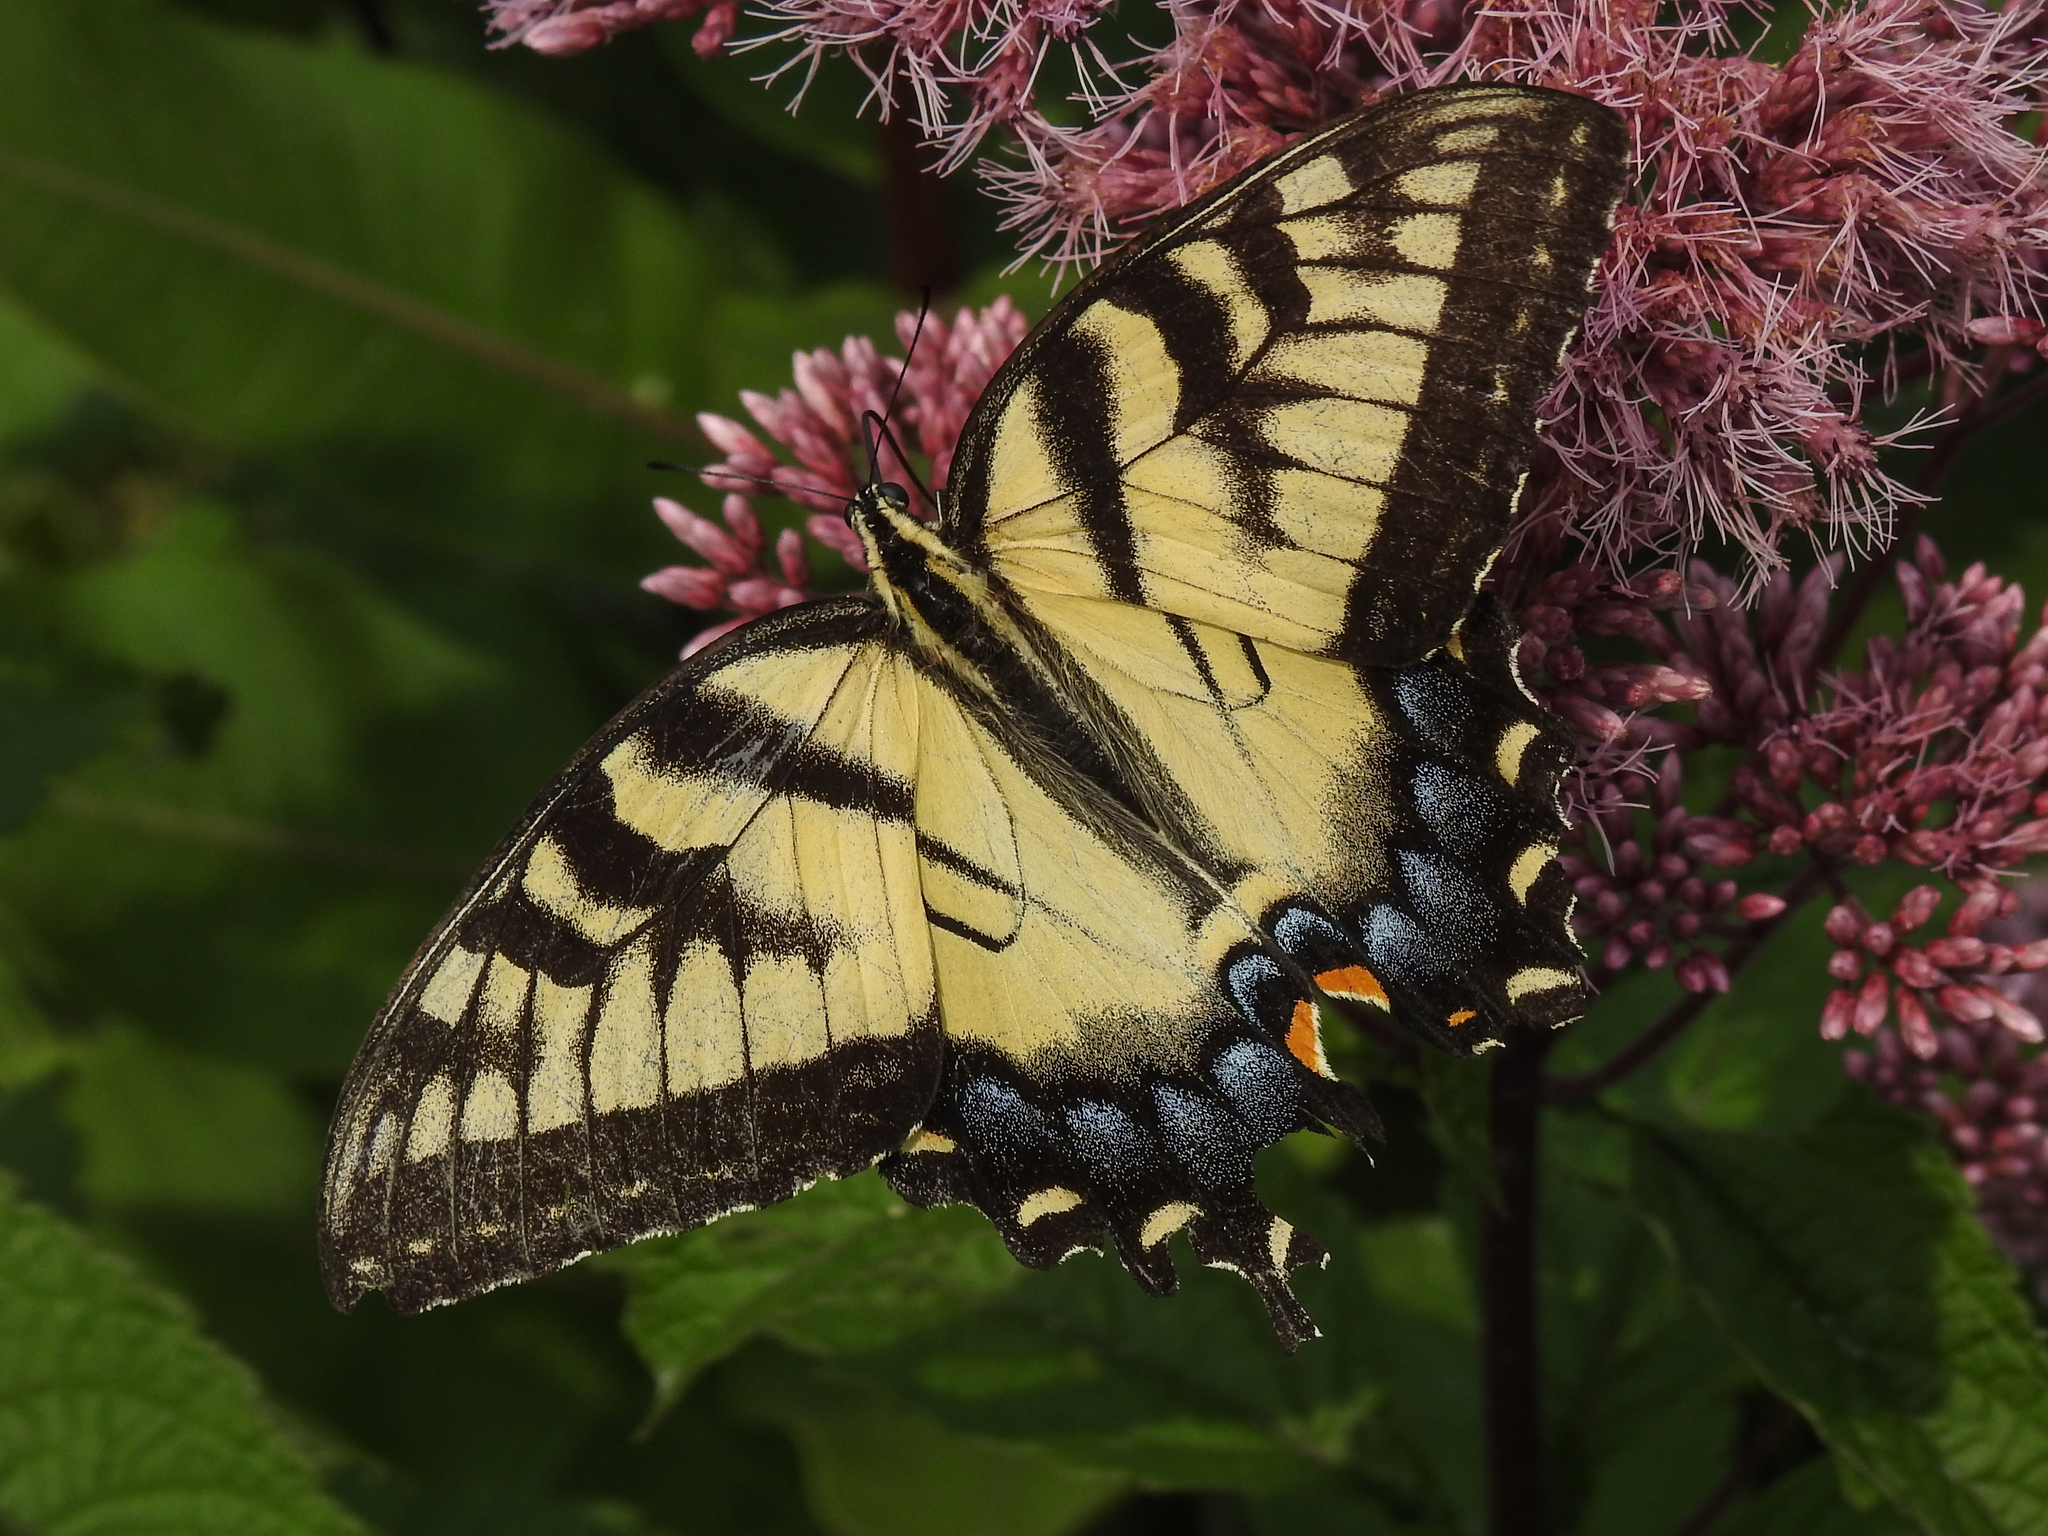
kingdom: Animalia
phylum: Arthropoda
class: Insecta
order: Lepidoptera
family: Papilionidae
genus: Papilio
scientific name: Papilio glaucus
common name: Tiger swallowtail
